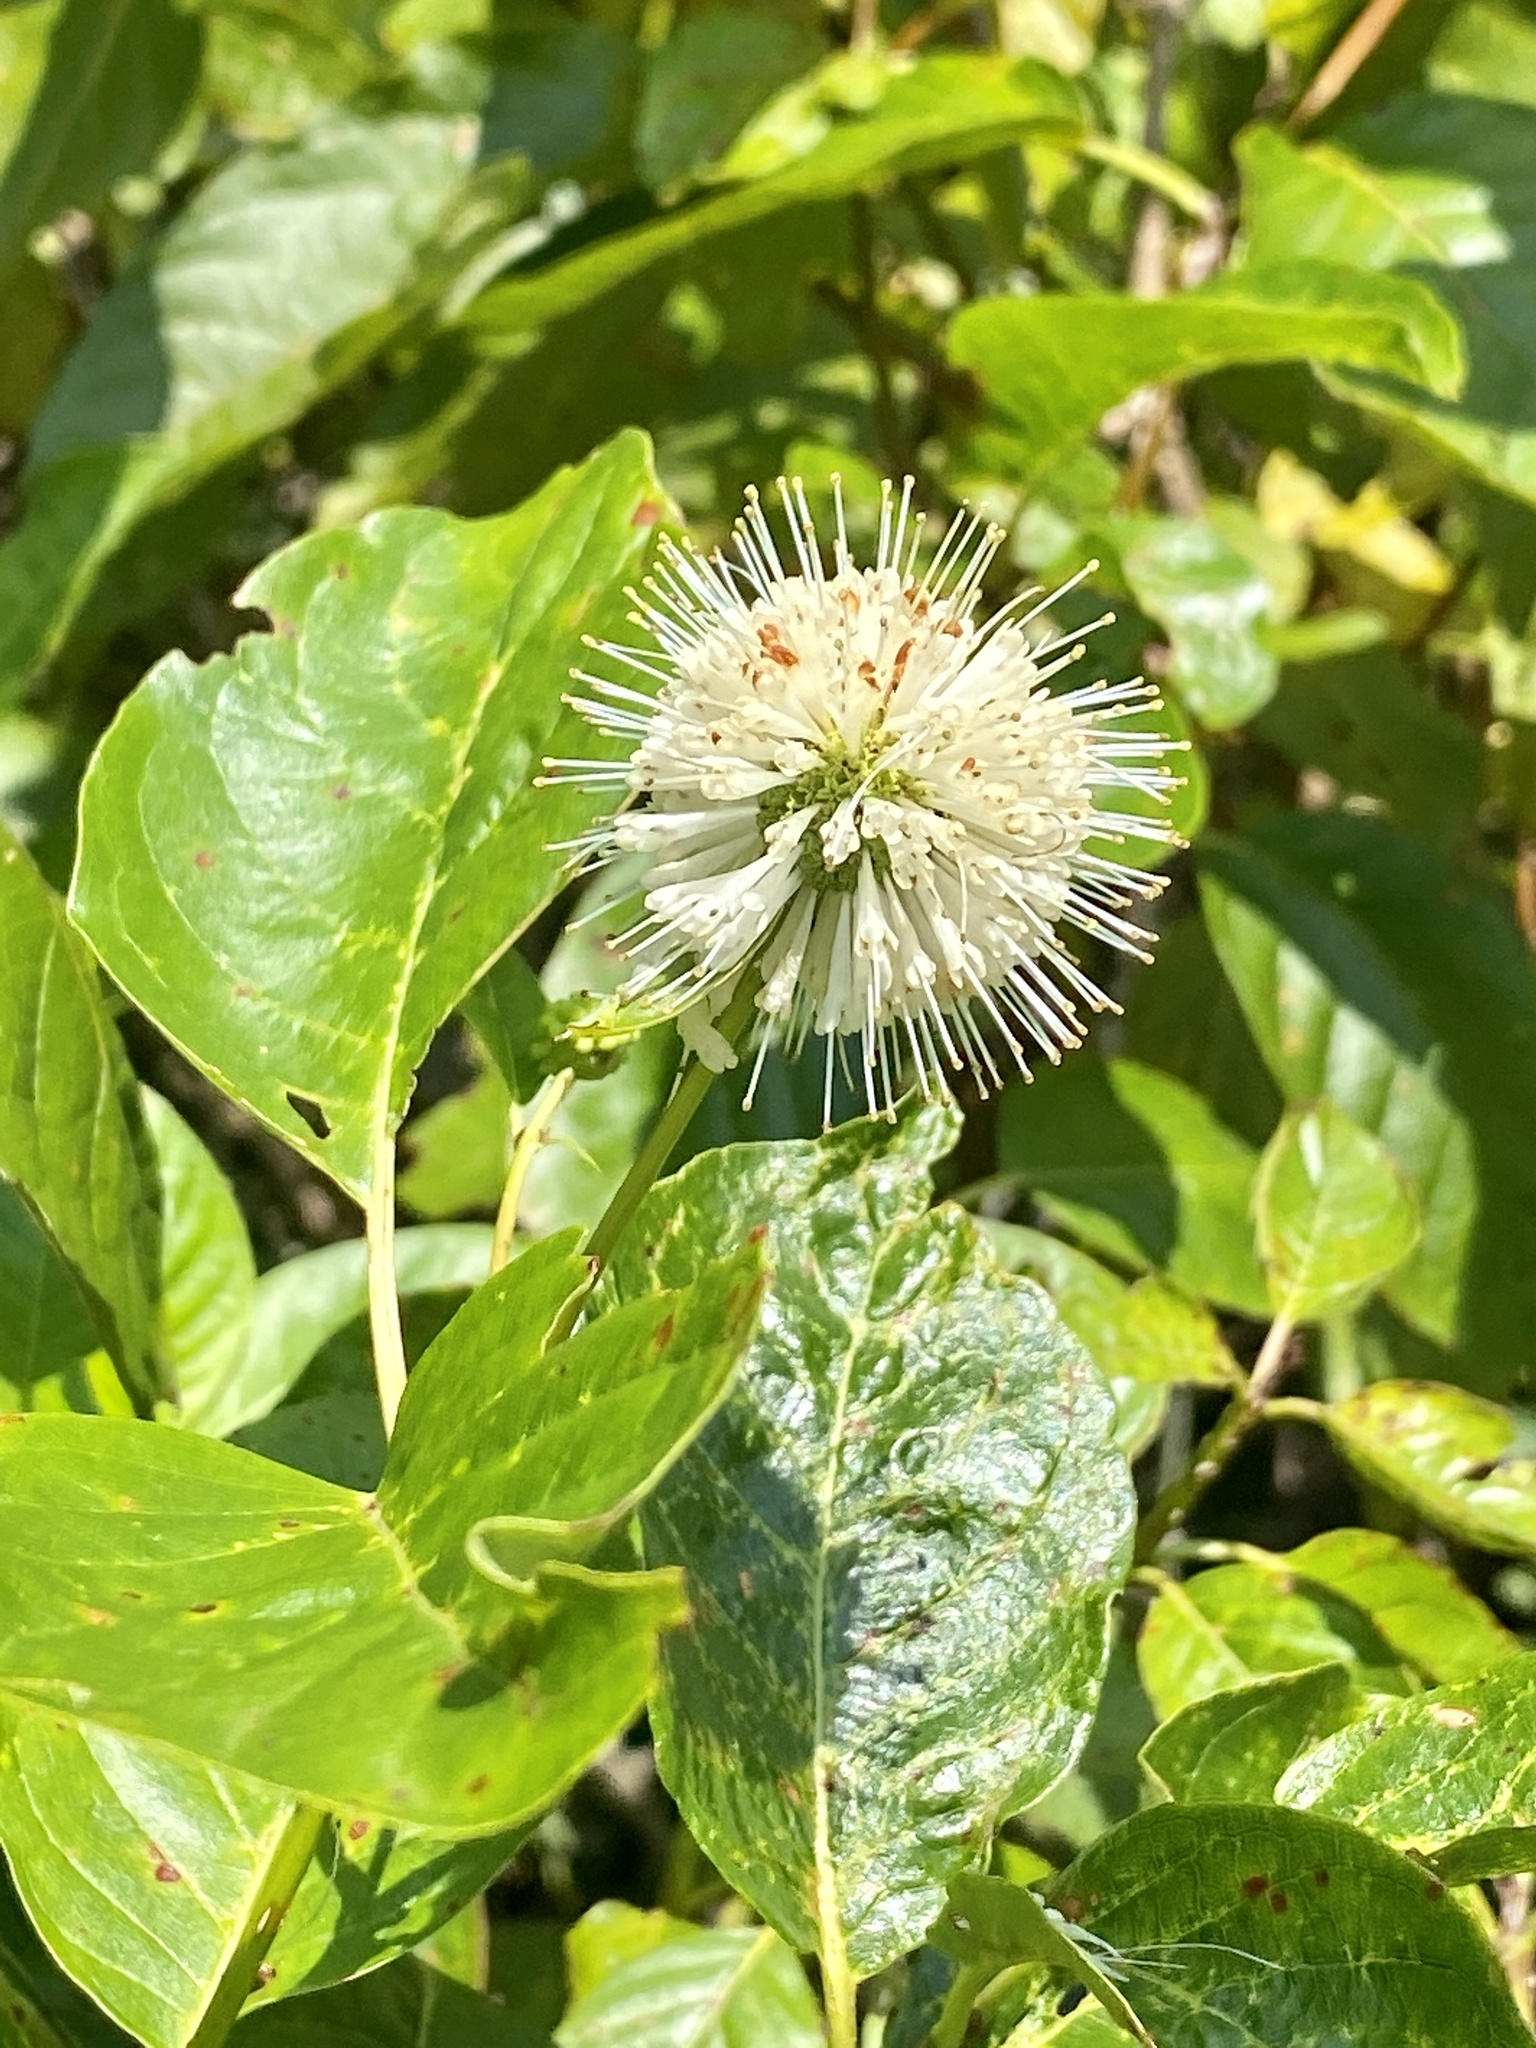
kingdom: Plantae
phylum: Tracheophyta
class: Magnoliopsida
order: Gentianales
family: Rubiaceae
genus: Cephalanthus
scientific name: Cephalanthus occidentalis
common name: Button-willow
